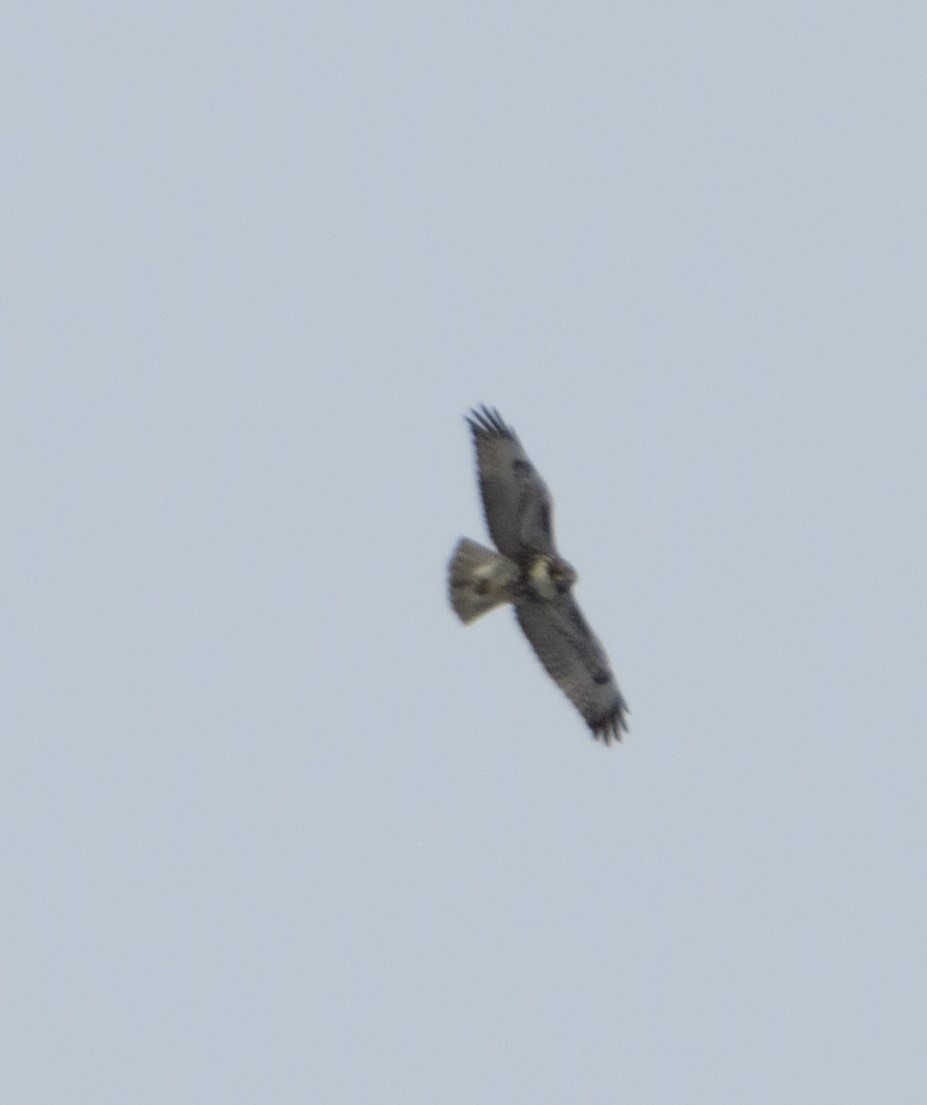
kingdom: Animalia
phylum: Chordata
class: Aves
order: Accipitriformes
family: Accipitridae
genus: Buteo
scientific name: Buteo jamaicensis
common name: Red-tailed hawk
